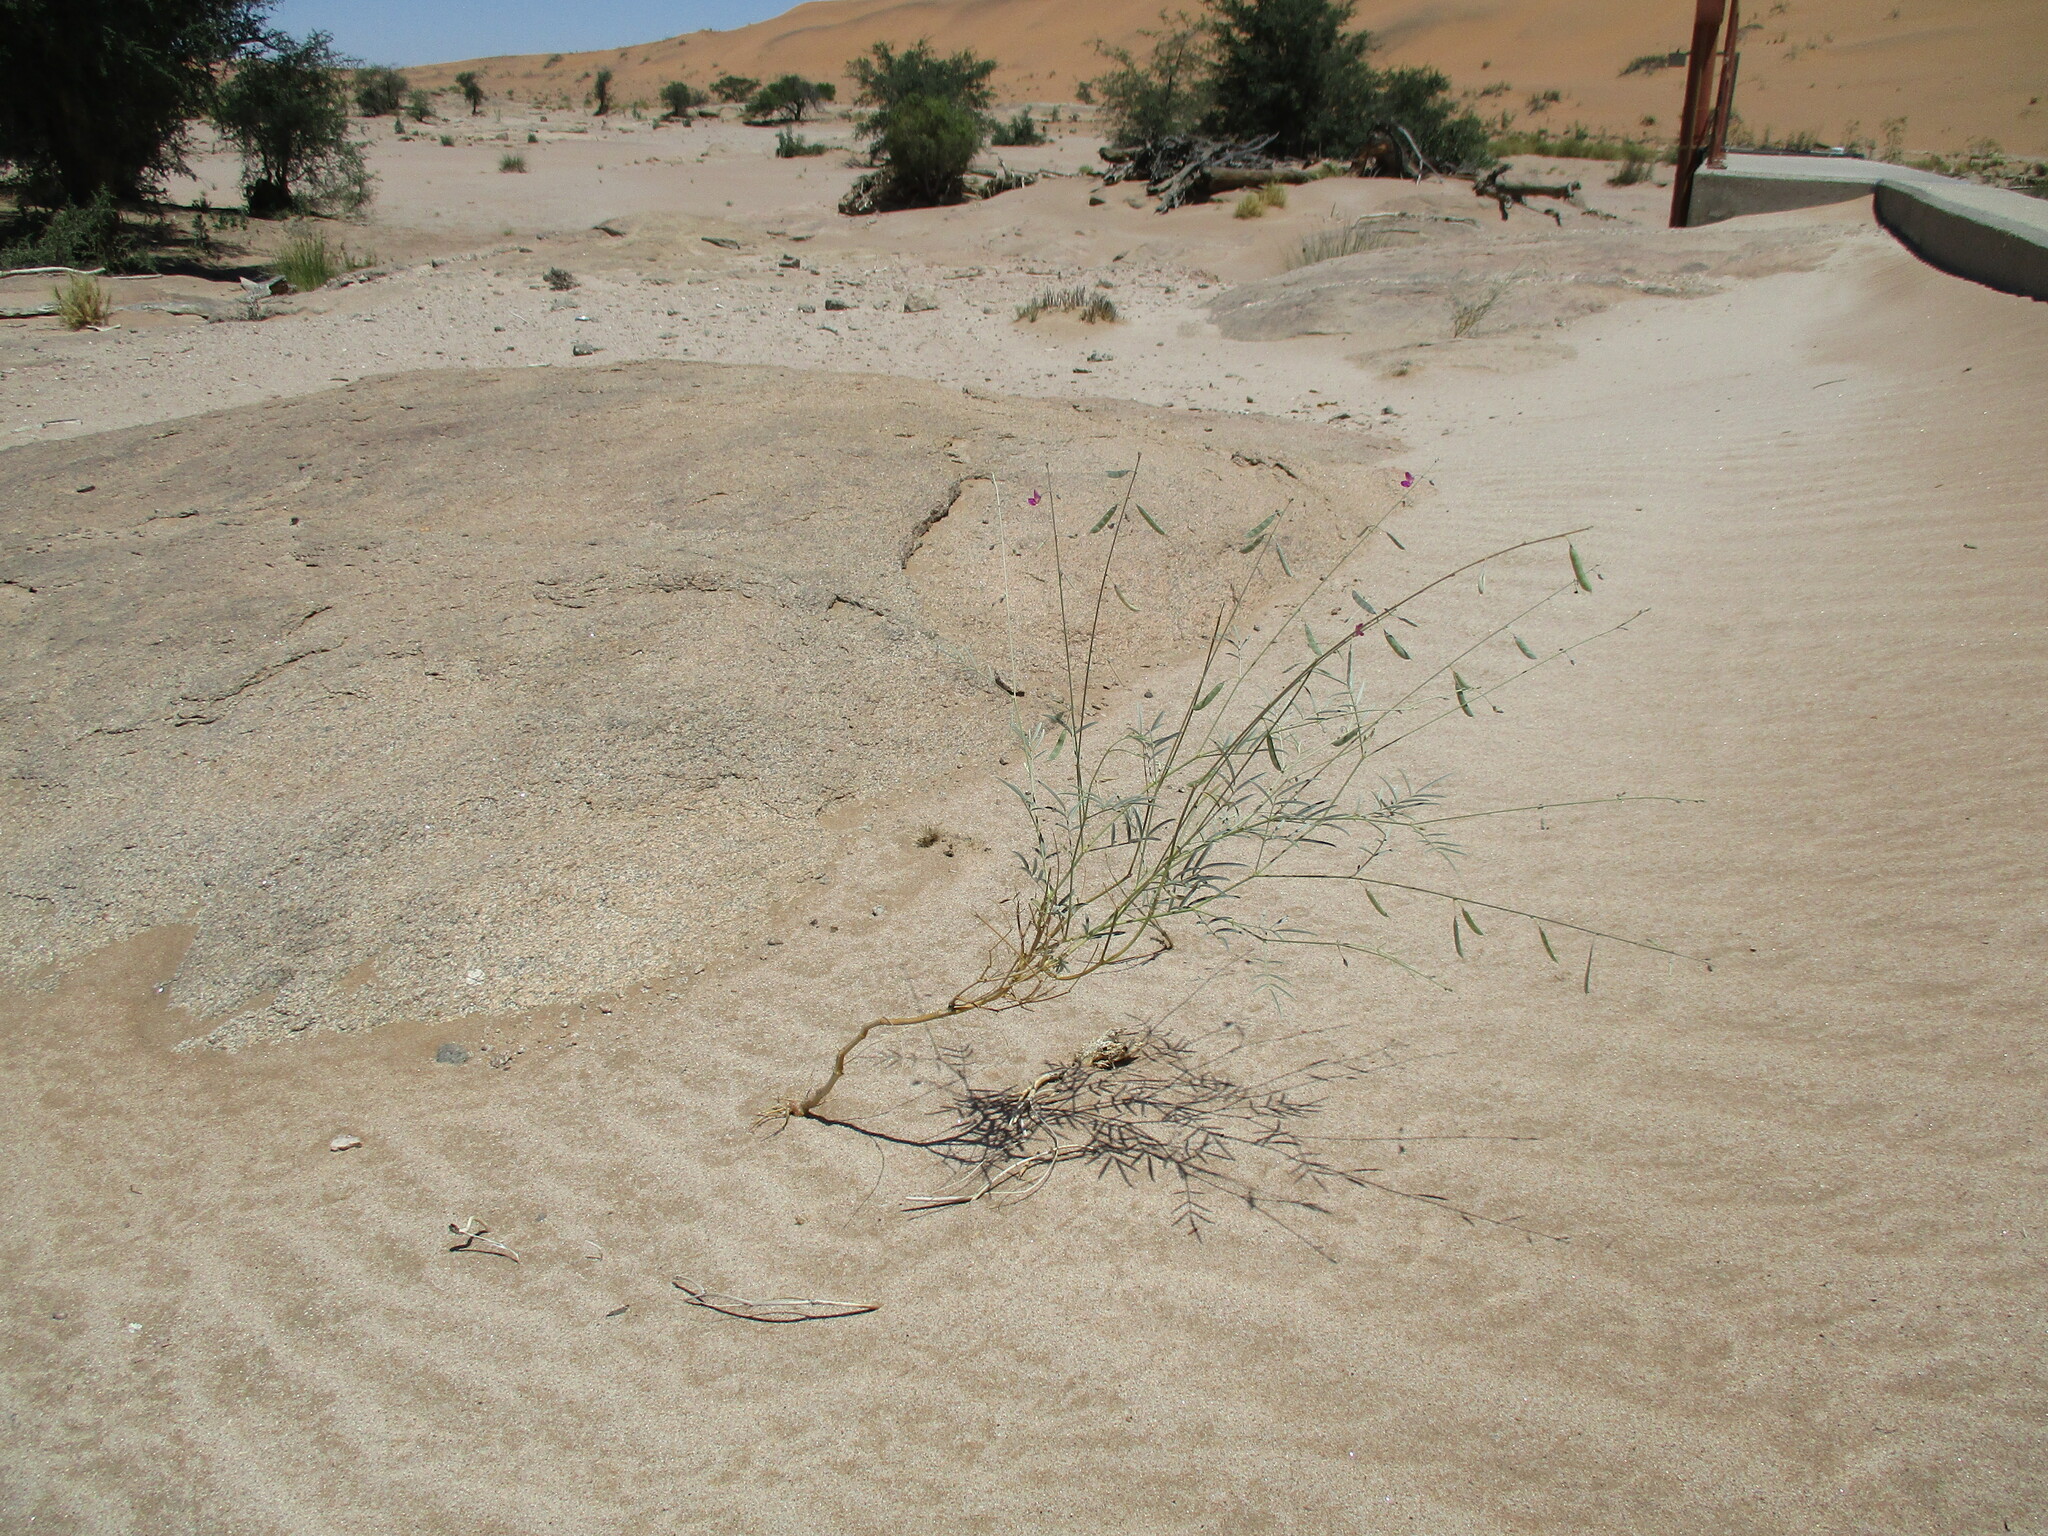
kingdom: Plantae
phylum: Tracheophyta
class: Magnoliopsida
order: Fabales
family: Fabaceae
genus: Tephrosia
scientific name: Tephrosia dregeana
